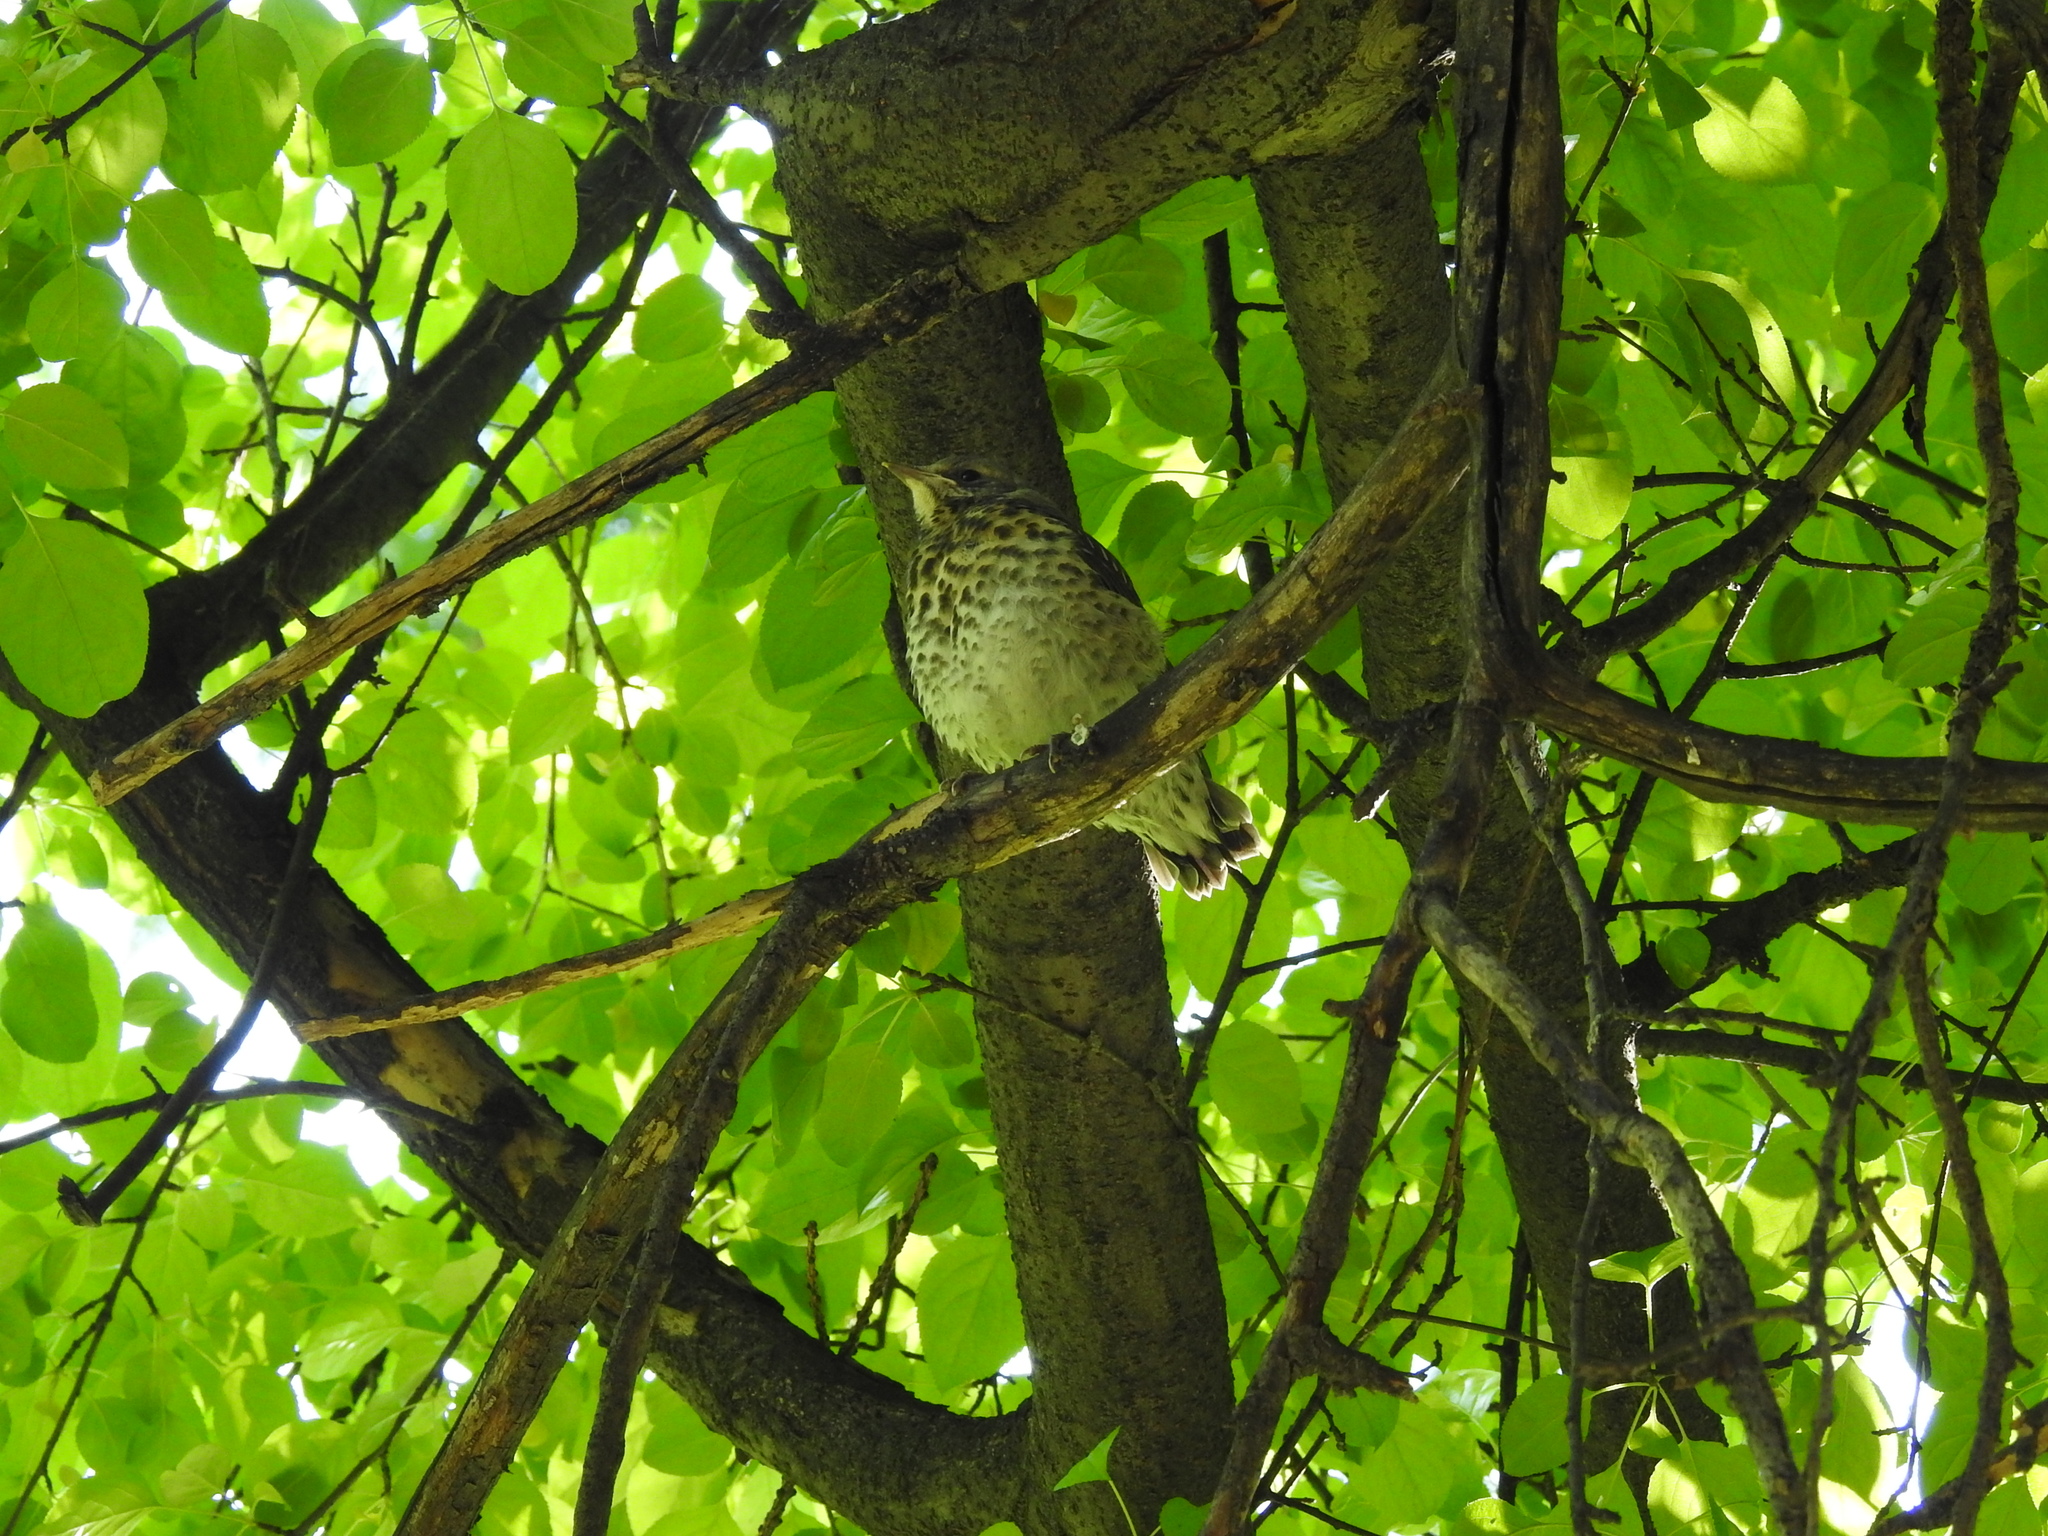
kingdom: Animalia
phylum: Chordata
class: Aves
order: Passeriformes
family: Turdidae
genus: Turdus
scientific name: Turdus pilaris
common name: Fieldfare
